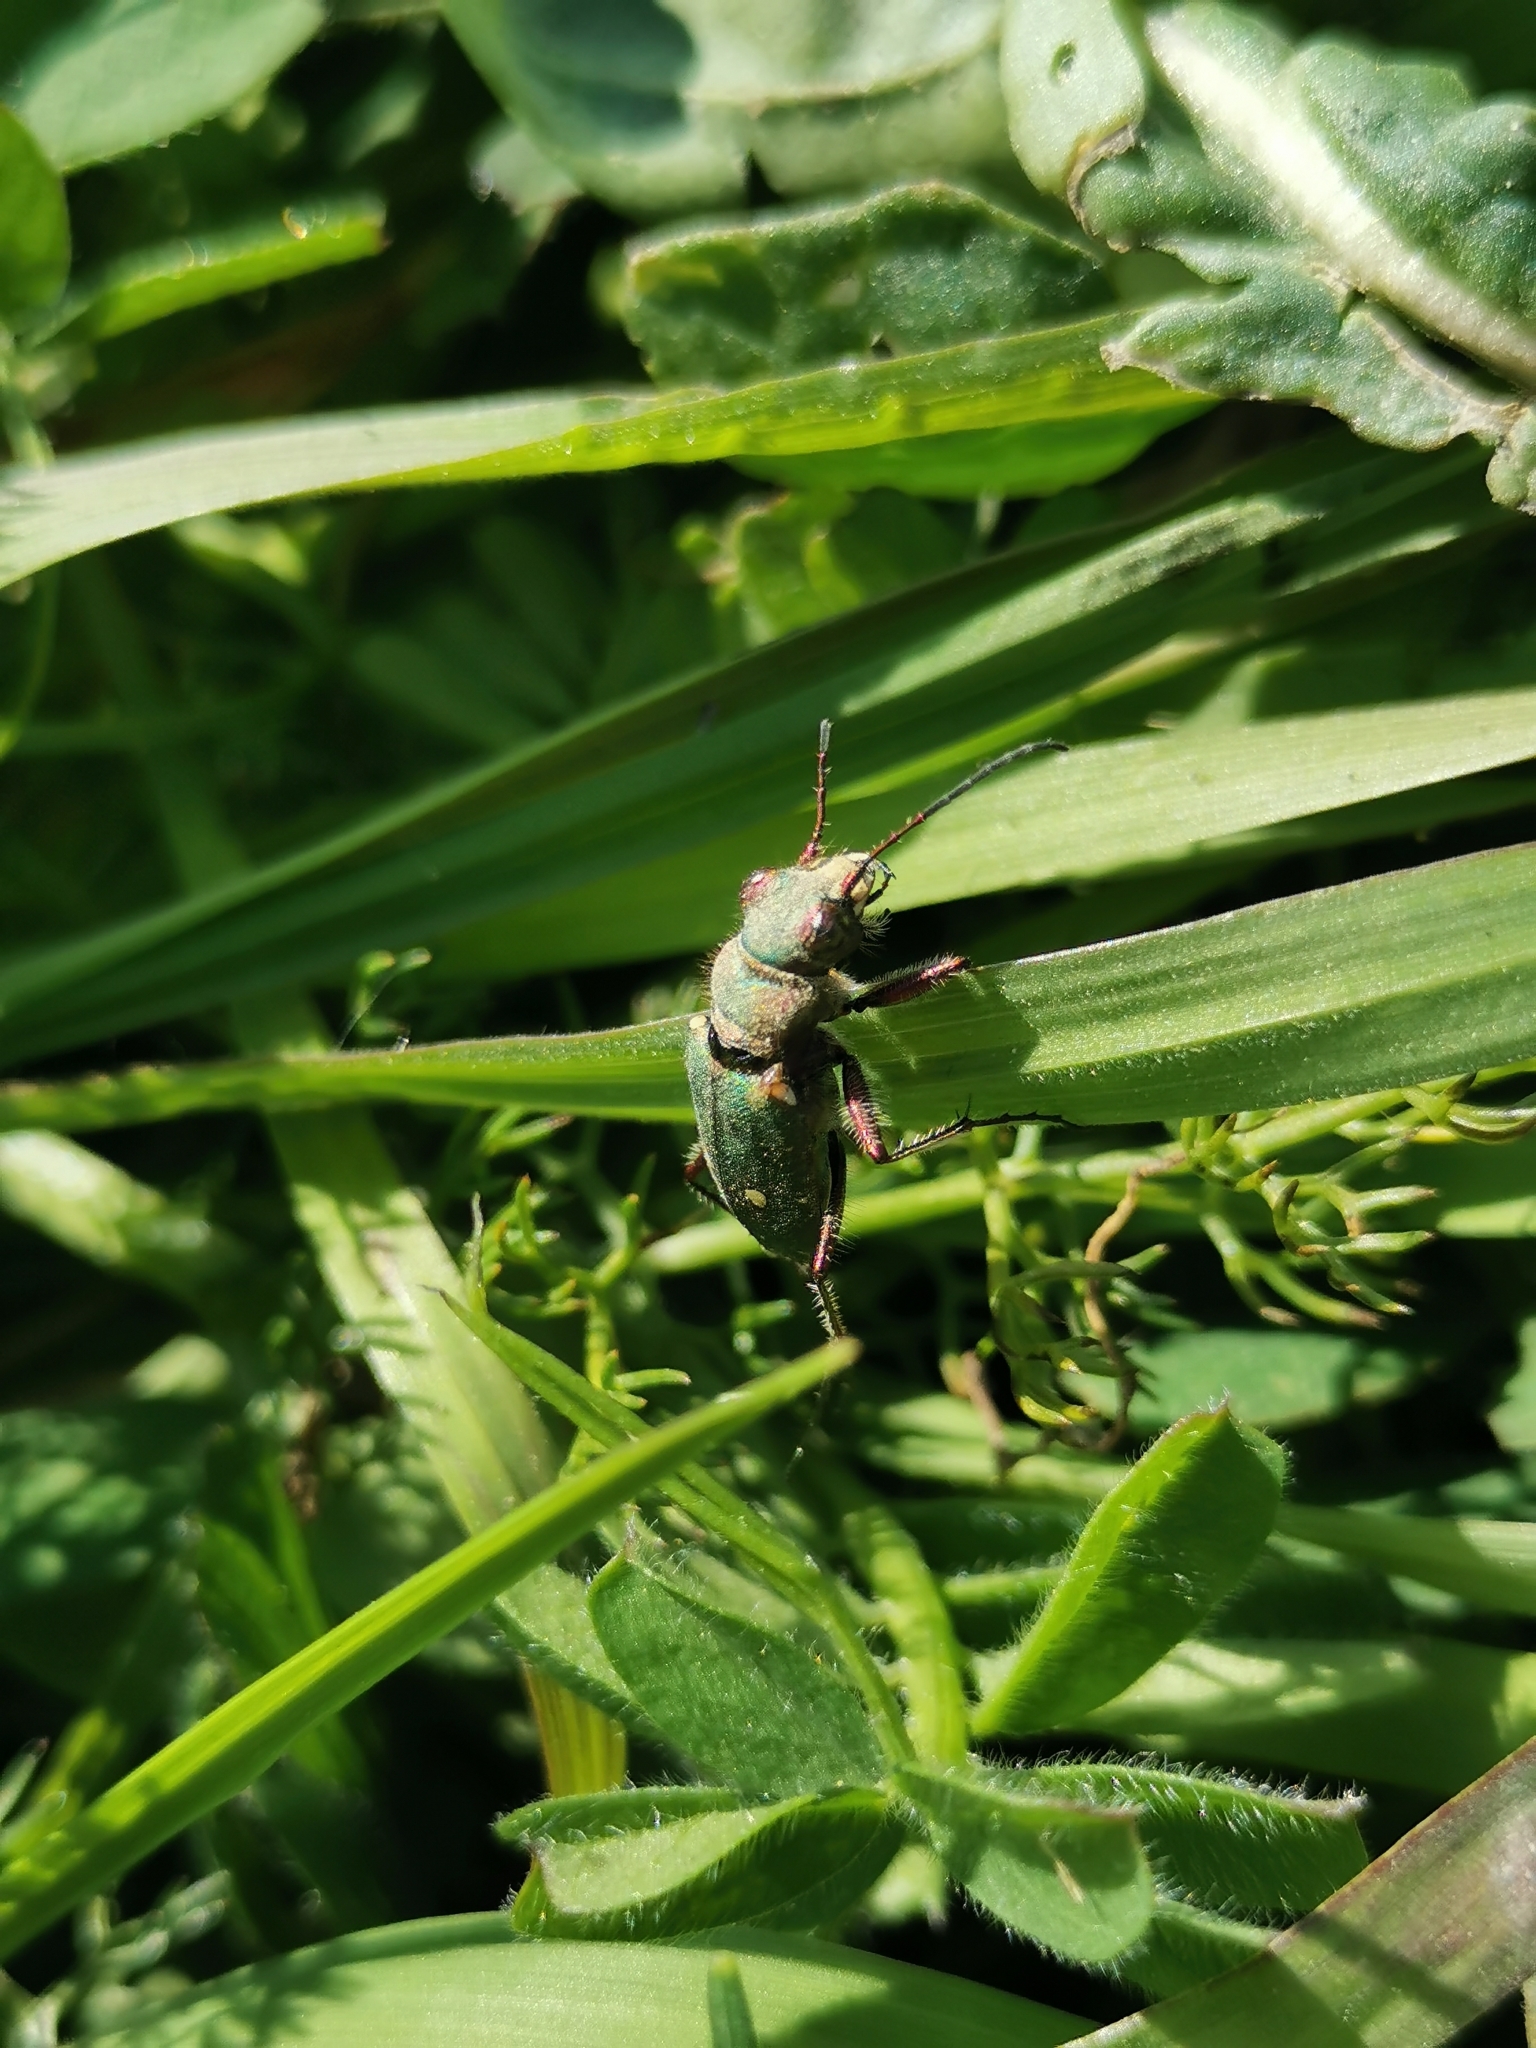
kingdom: Animalia
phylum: Arthropoda
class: Insecta
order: Coleoptera
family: Carabidae
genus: Cicindela
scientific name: Cicindela campestris
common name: Common tiger beetle
